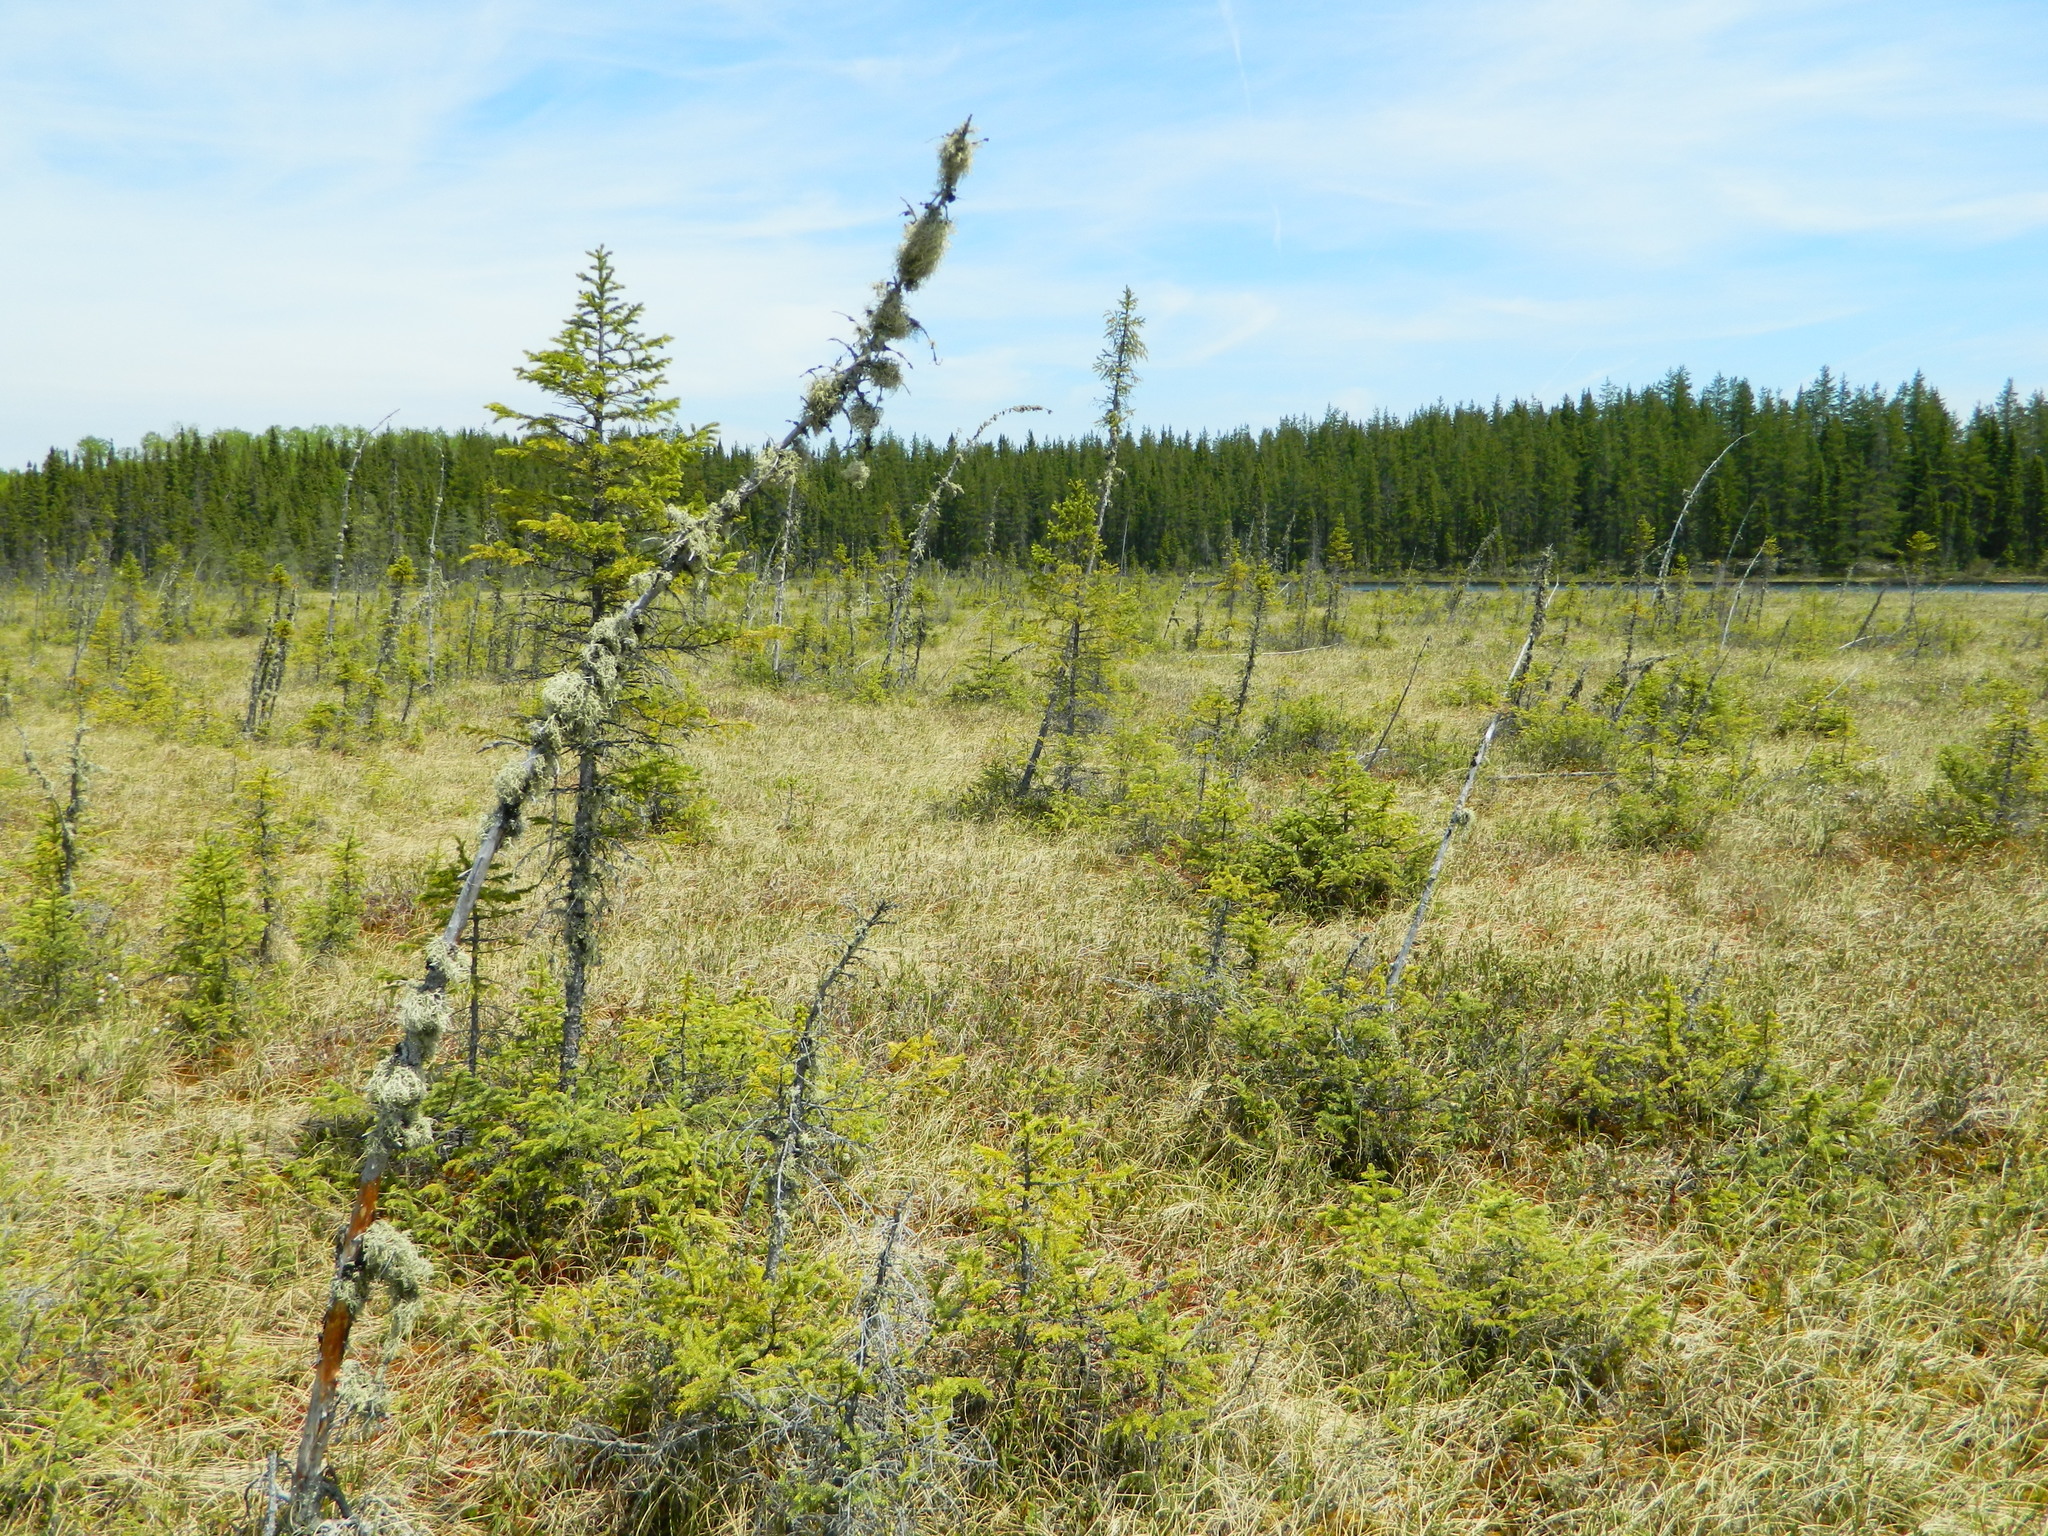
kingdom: Plantae
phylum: Tracheophyta
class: Pinopsida
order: Pinales
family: Pinaceae
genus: Picea
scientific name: Picea mariana
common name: Black spruce
